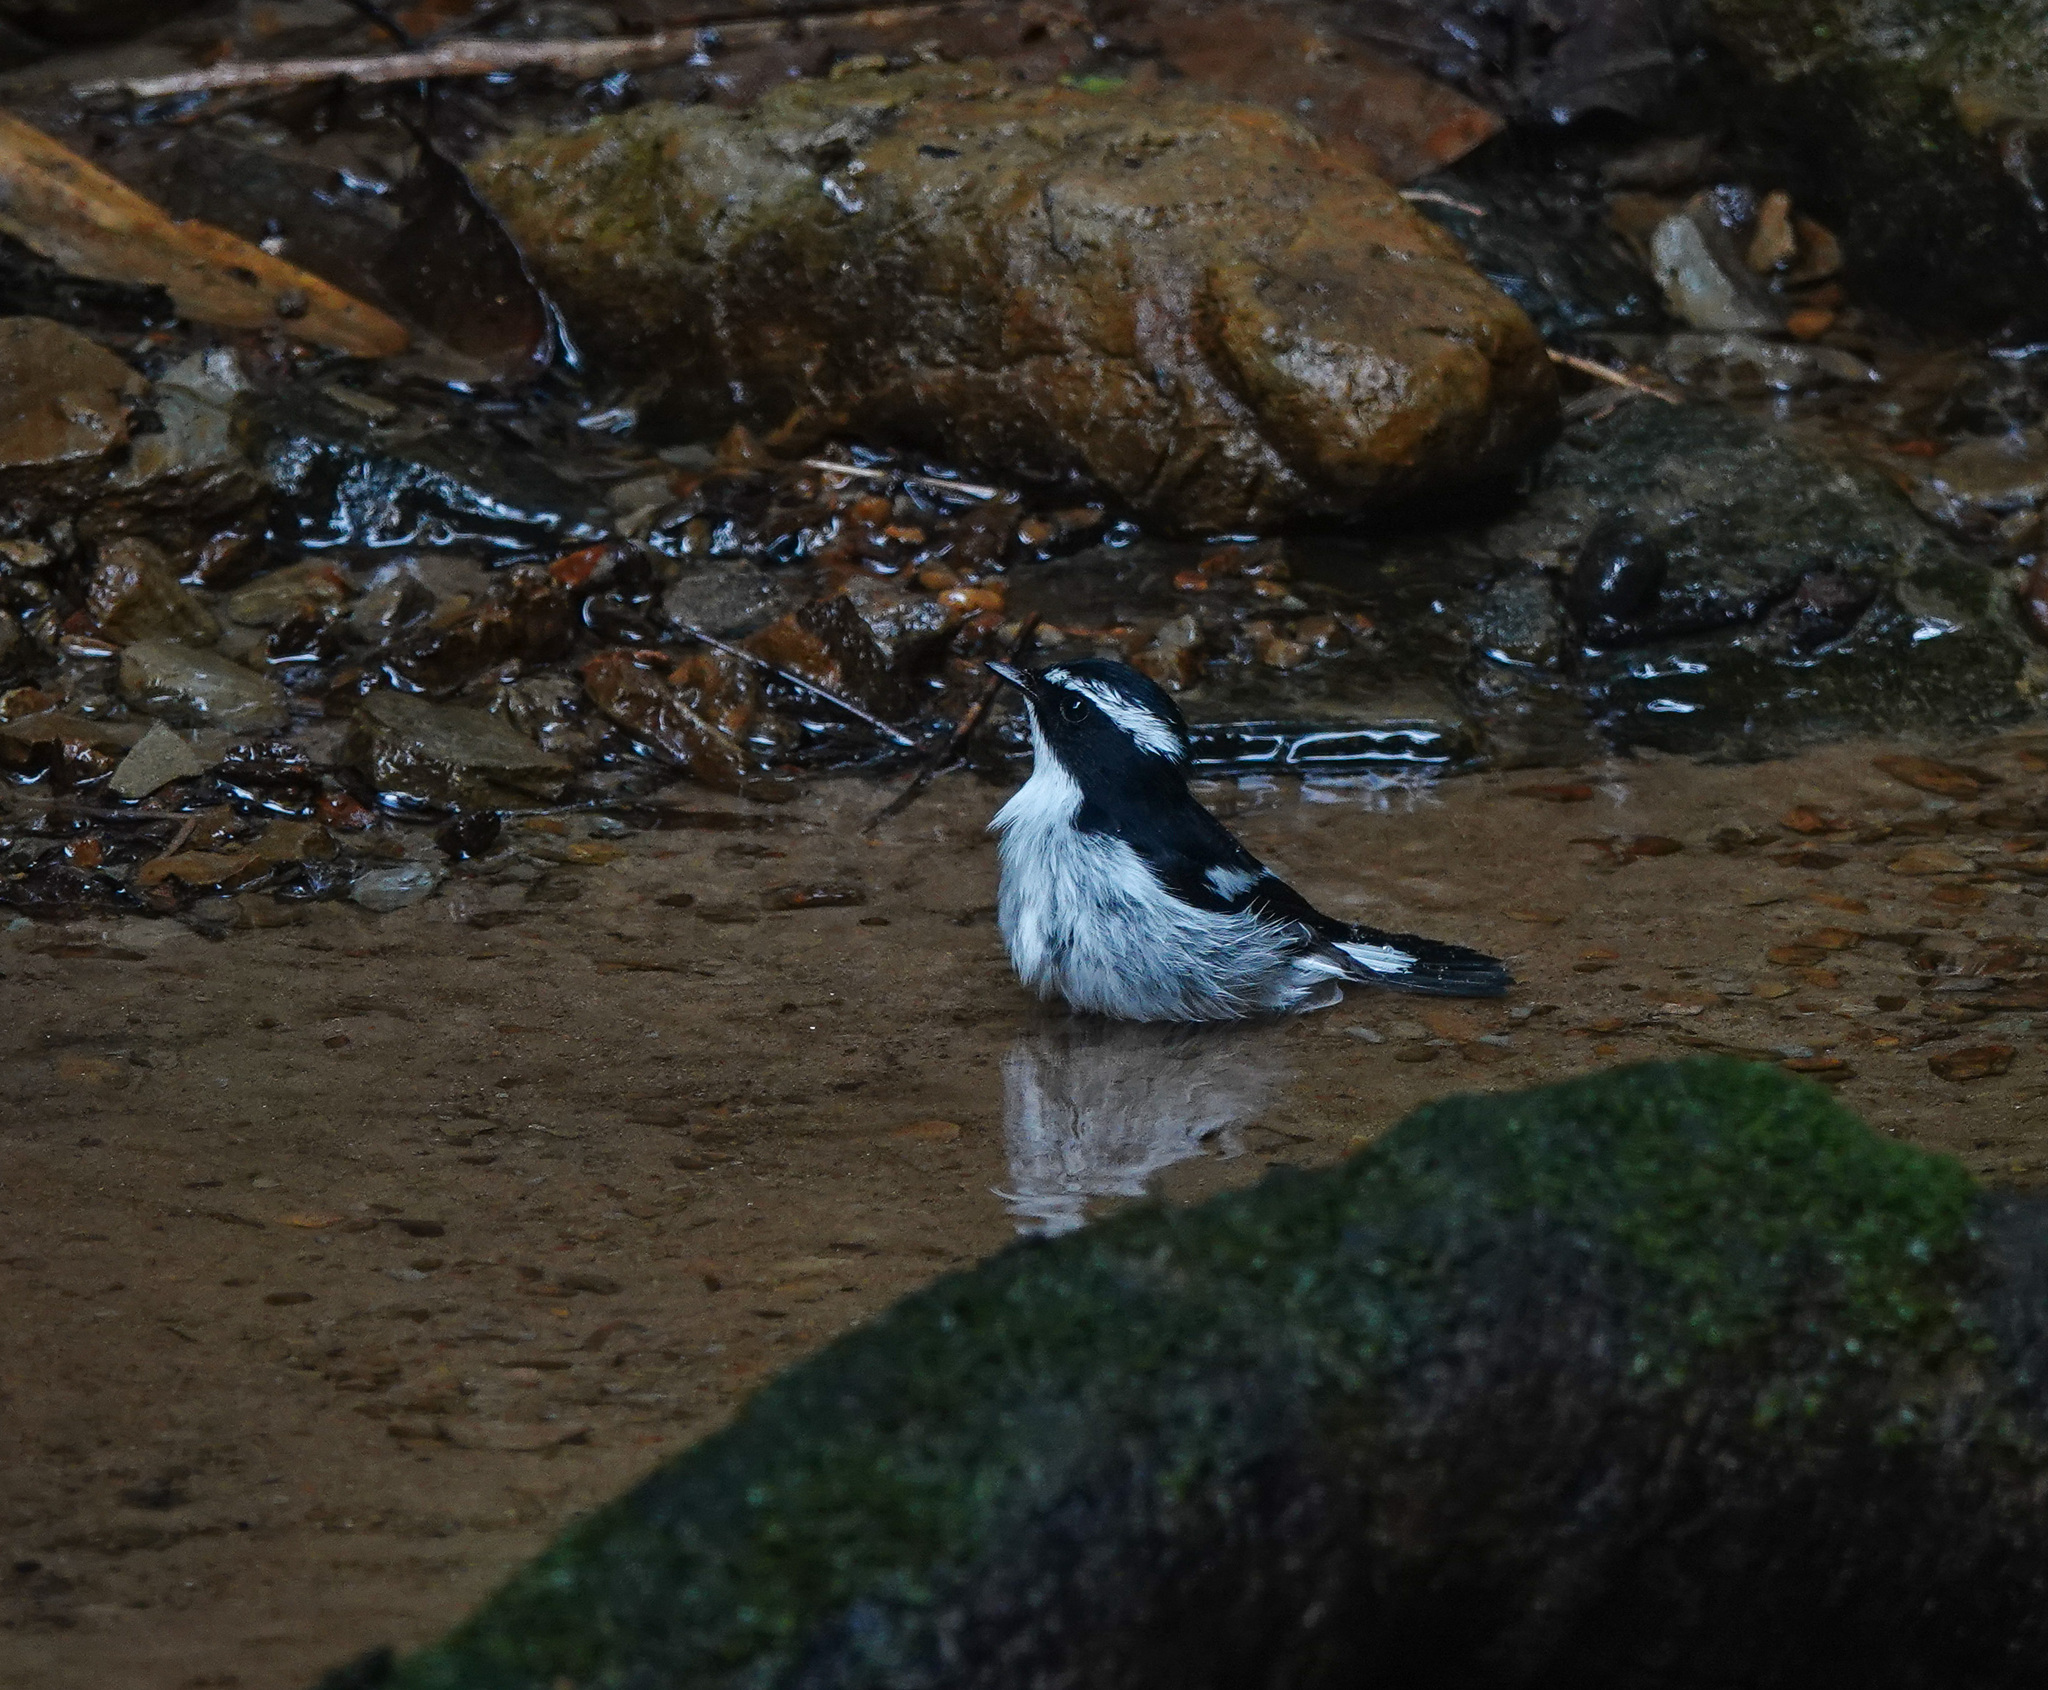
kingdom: Animalia
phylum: Chordata
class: Aves
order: Passeriformes
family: Muscicapidae
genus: Ficedula
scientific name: Ficedula westermanni
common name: Little pied flycatcher
